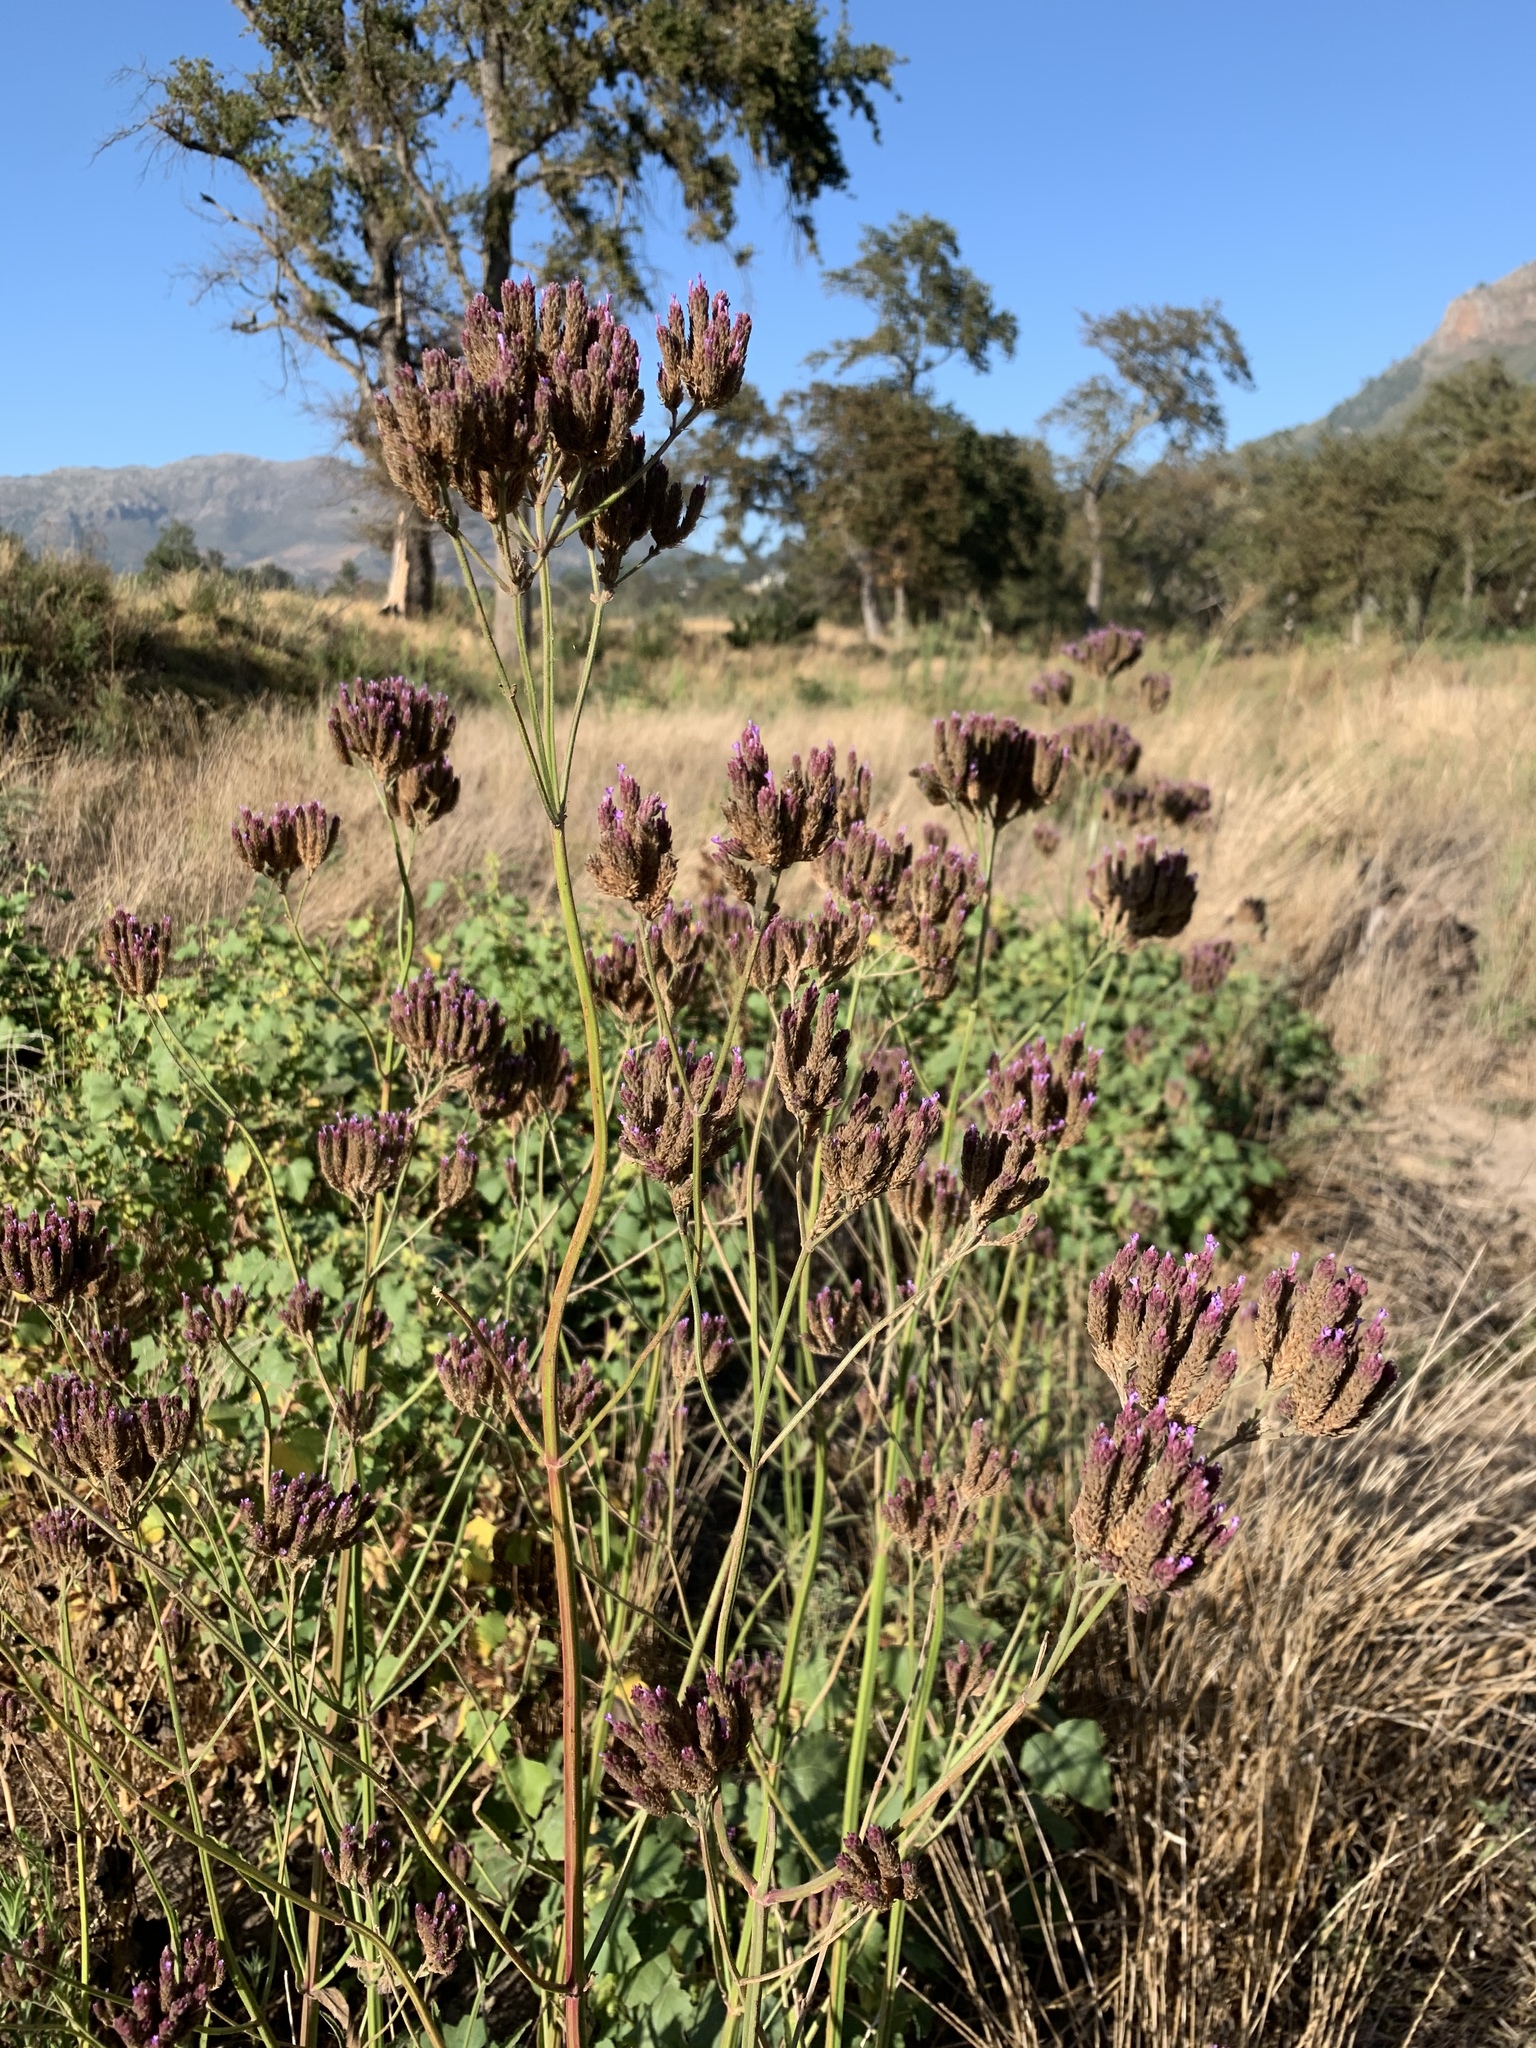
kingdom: Plantae
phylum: Tracheophyta
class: Magnoliopsida
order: Lamiales
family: Verbenaceae
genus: Verbena
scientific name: Verbena bonariensis
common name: Purpletop vervain
